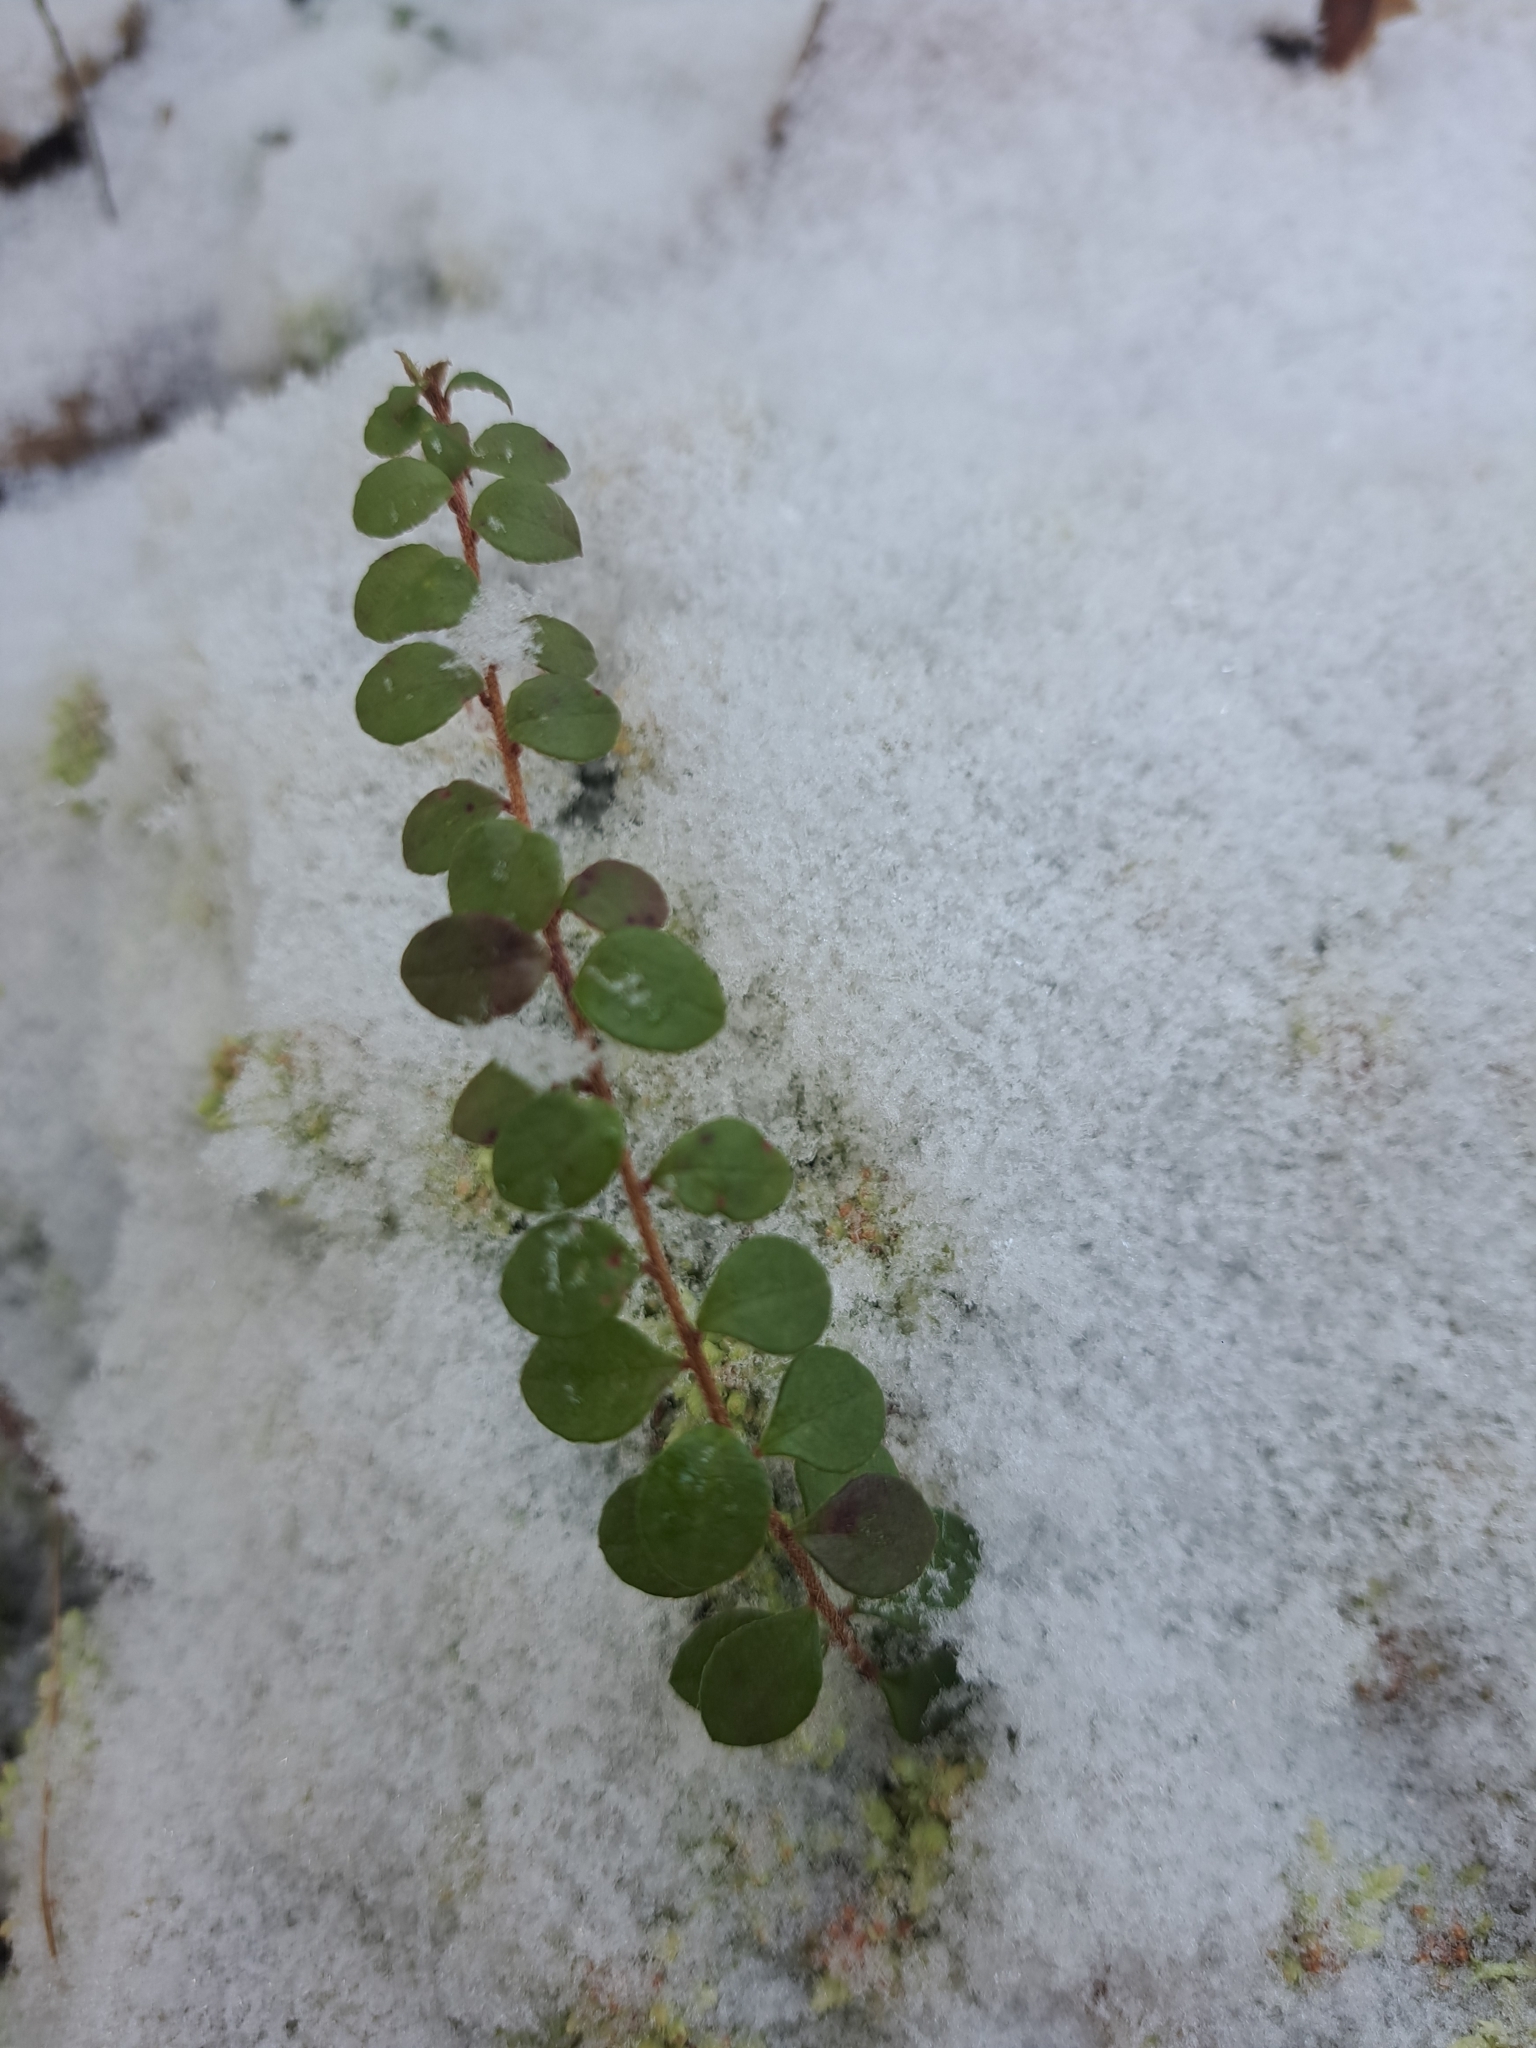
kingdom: Plantae
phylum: Tracheophyta
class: Magnoliopsida
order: Ericales
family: Ericaceae
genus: Gaultheria
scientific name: Gaultheria hispidula
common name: Cancer wintergreen
